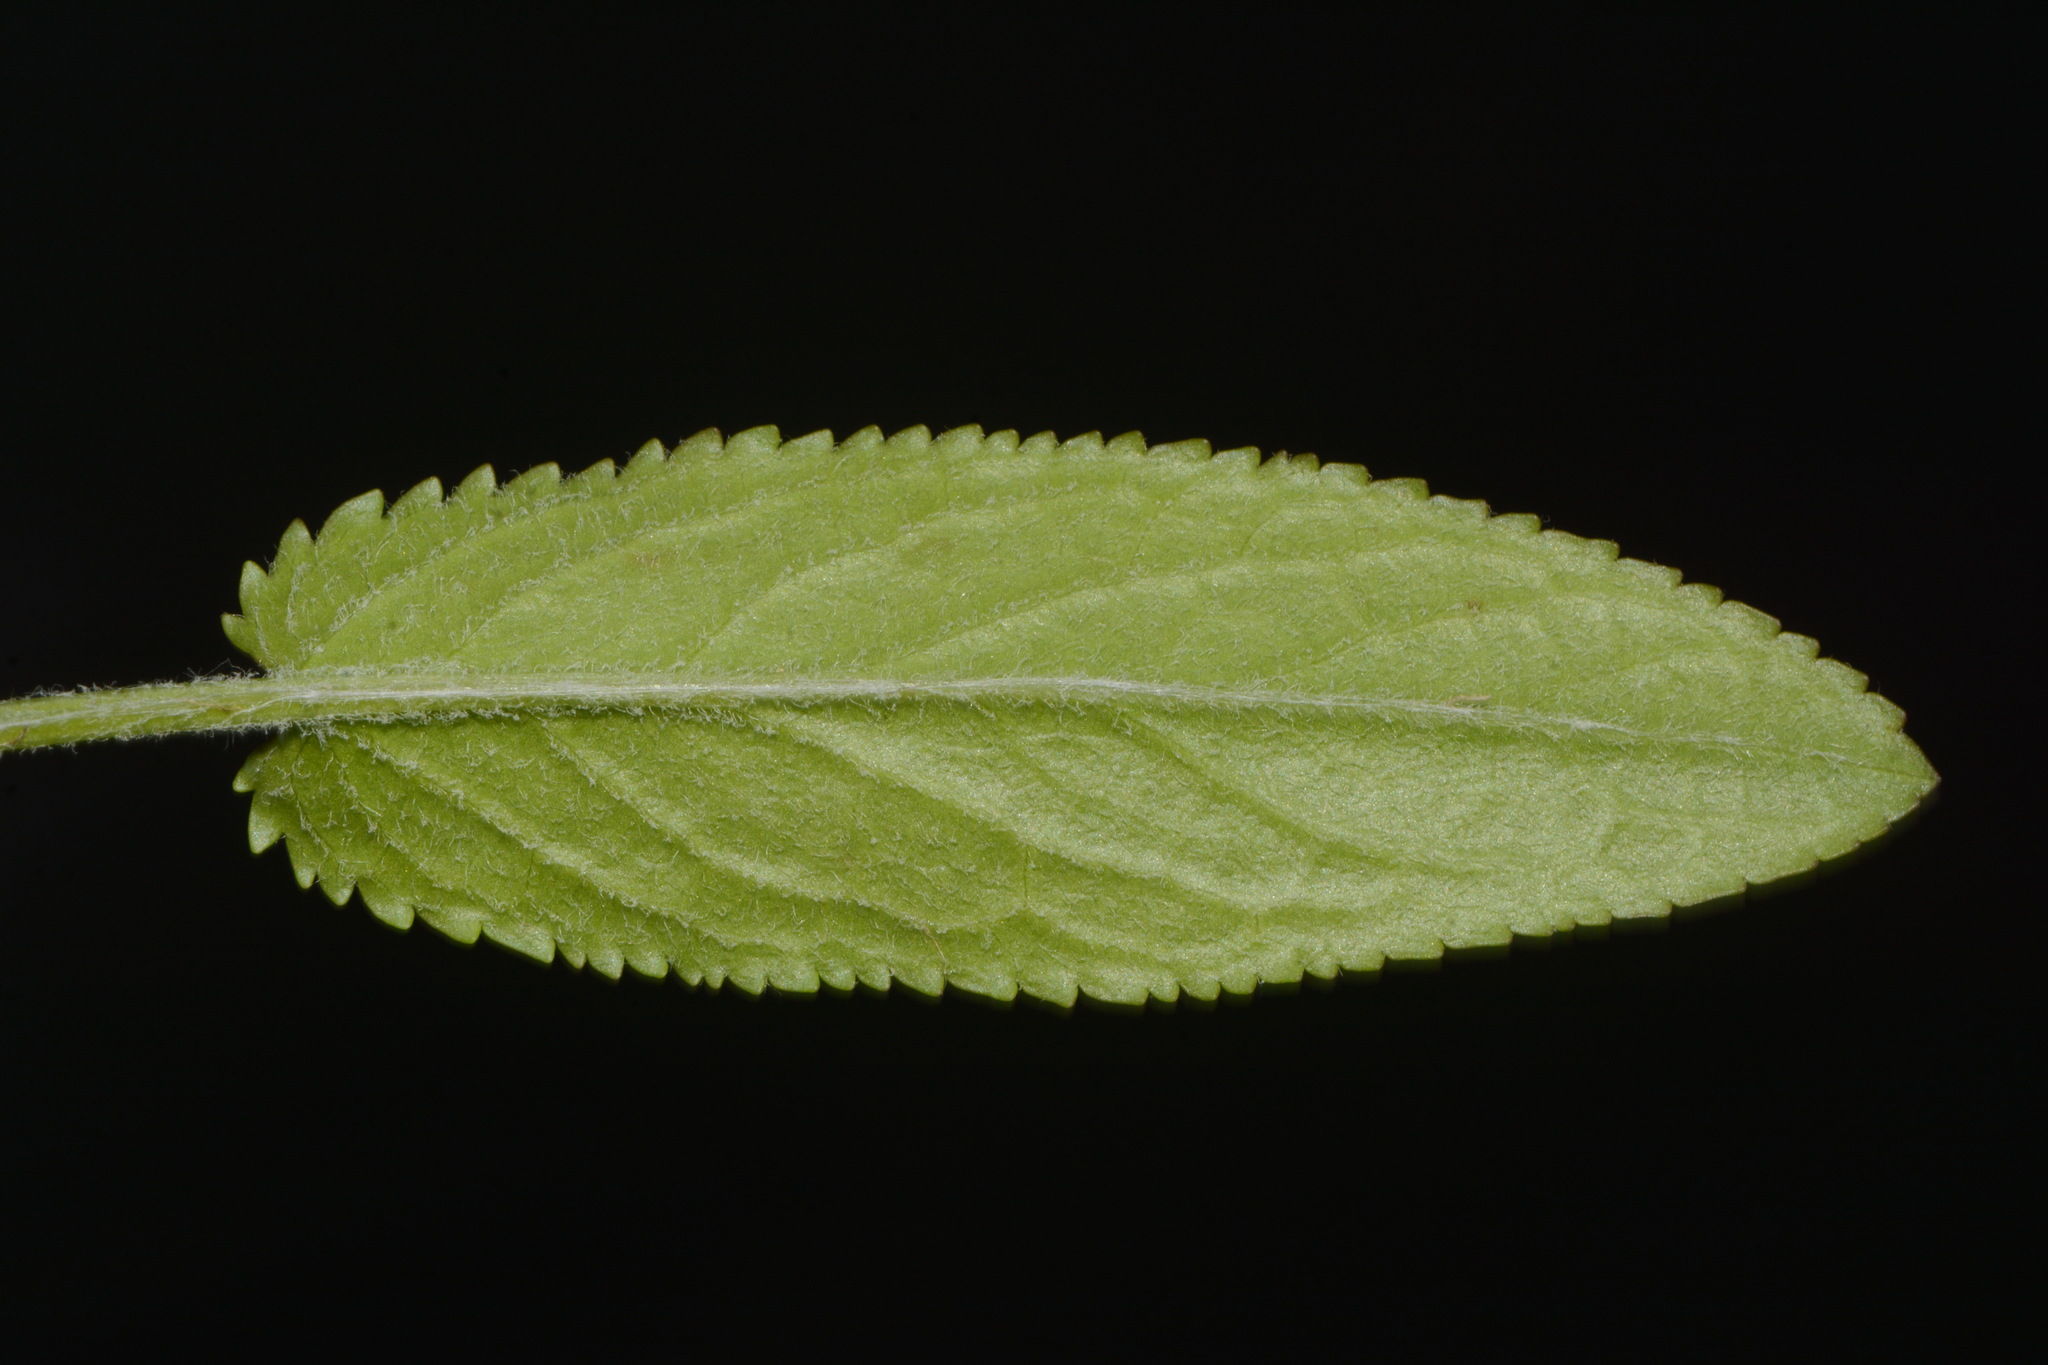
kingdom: Plantae
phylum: Tracheophyta
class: Magnoliopsida
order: Asterales
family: Asteraceae
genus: Packera
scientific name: Packera schweinitziana
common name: Schweinitz's ragwort
